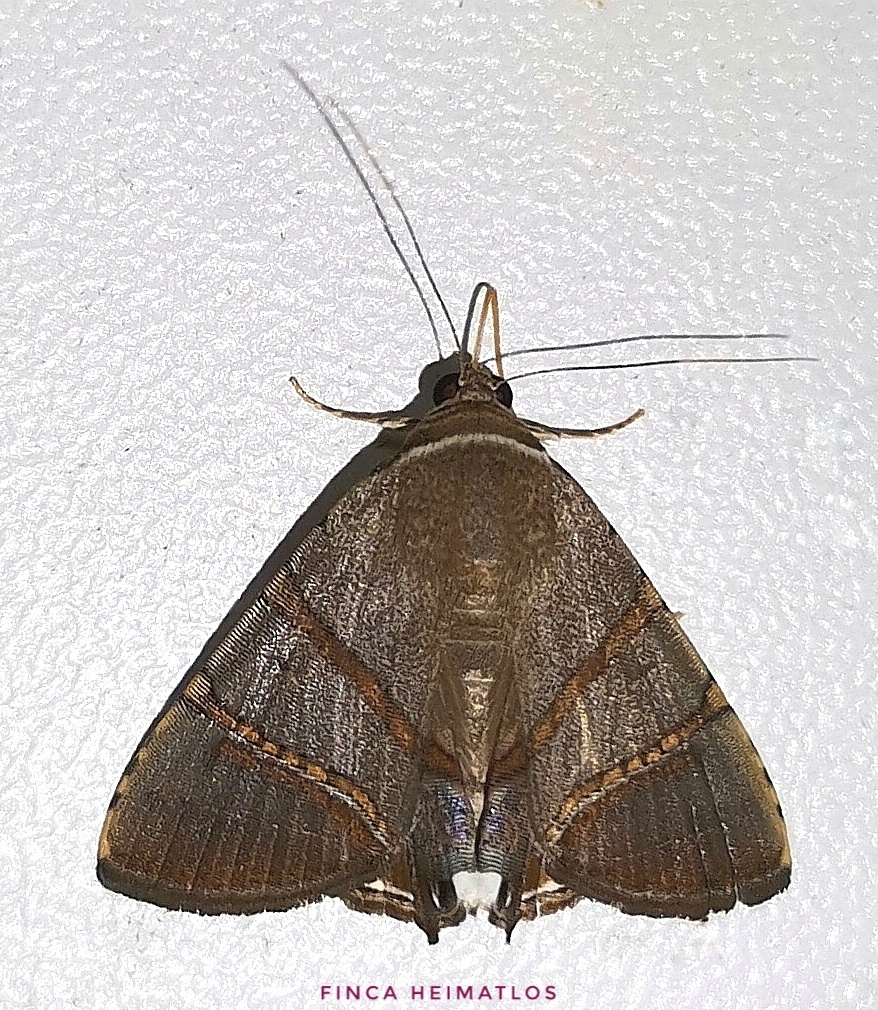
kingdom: Animalia
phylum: Arthropoda
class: Insecta
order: Lepidoptera
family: Erebidae
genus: Eulepidotis
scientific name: Eulepidotis juncida
